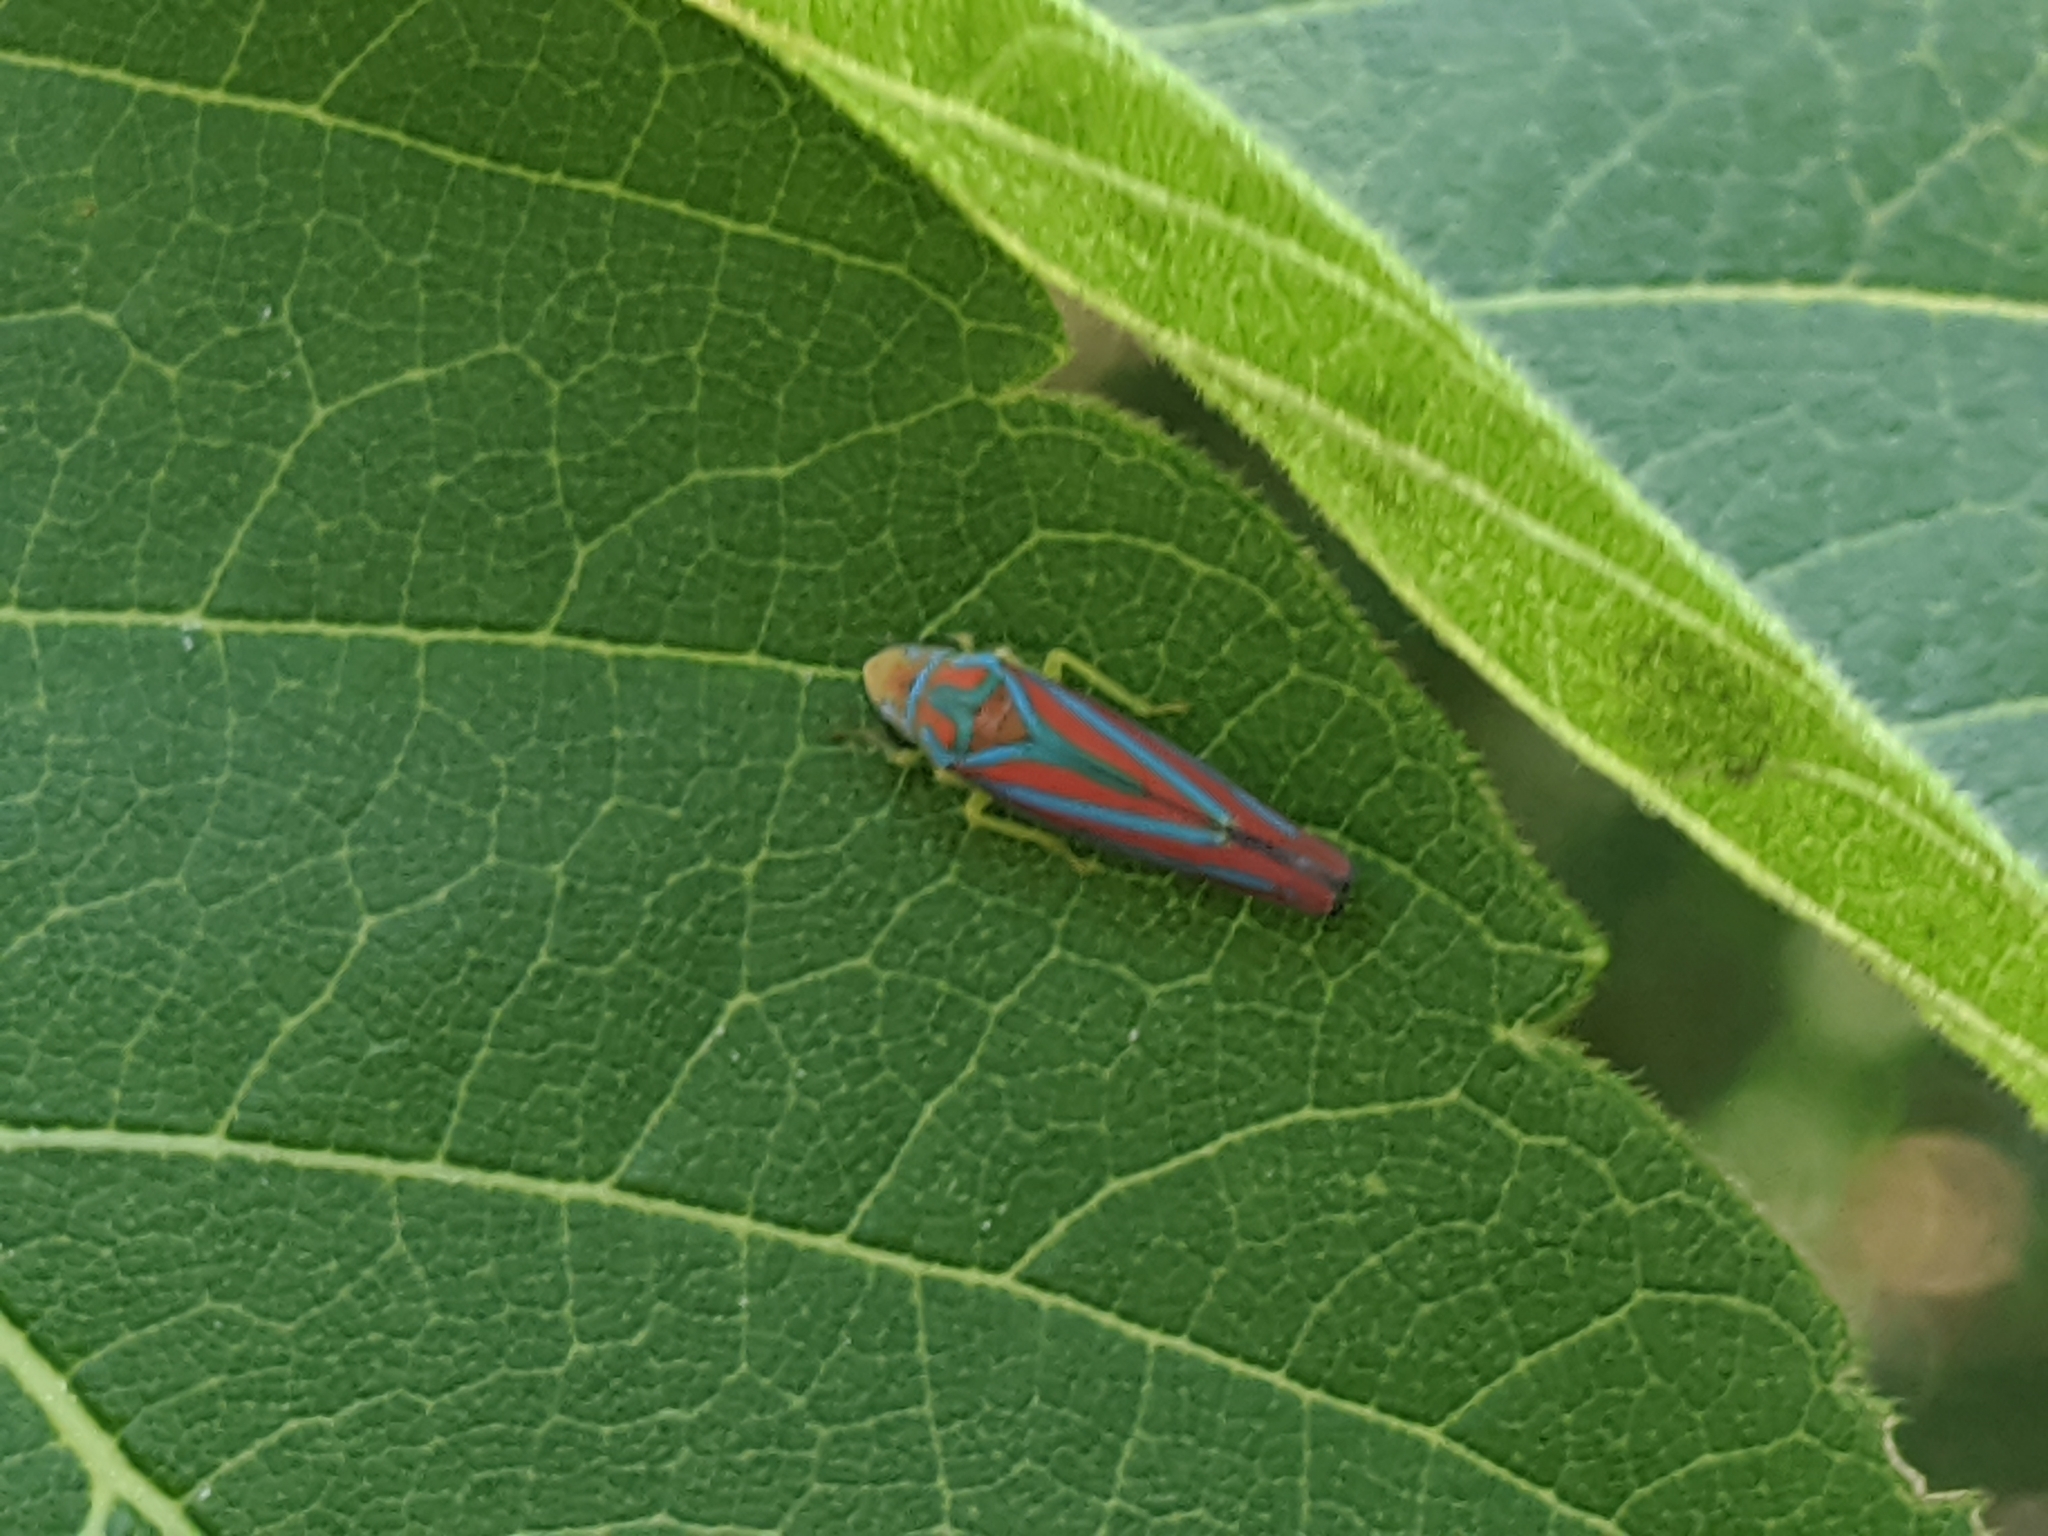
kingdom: Animalia
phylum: Arthropoda
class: Insecta
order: Hemiptera
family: Cicadellidae
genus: Graphocephala
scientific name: Graphocephala coccinea
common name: Candy-striped leafhopper
